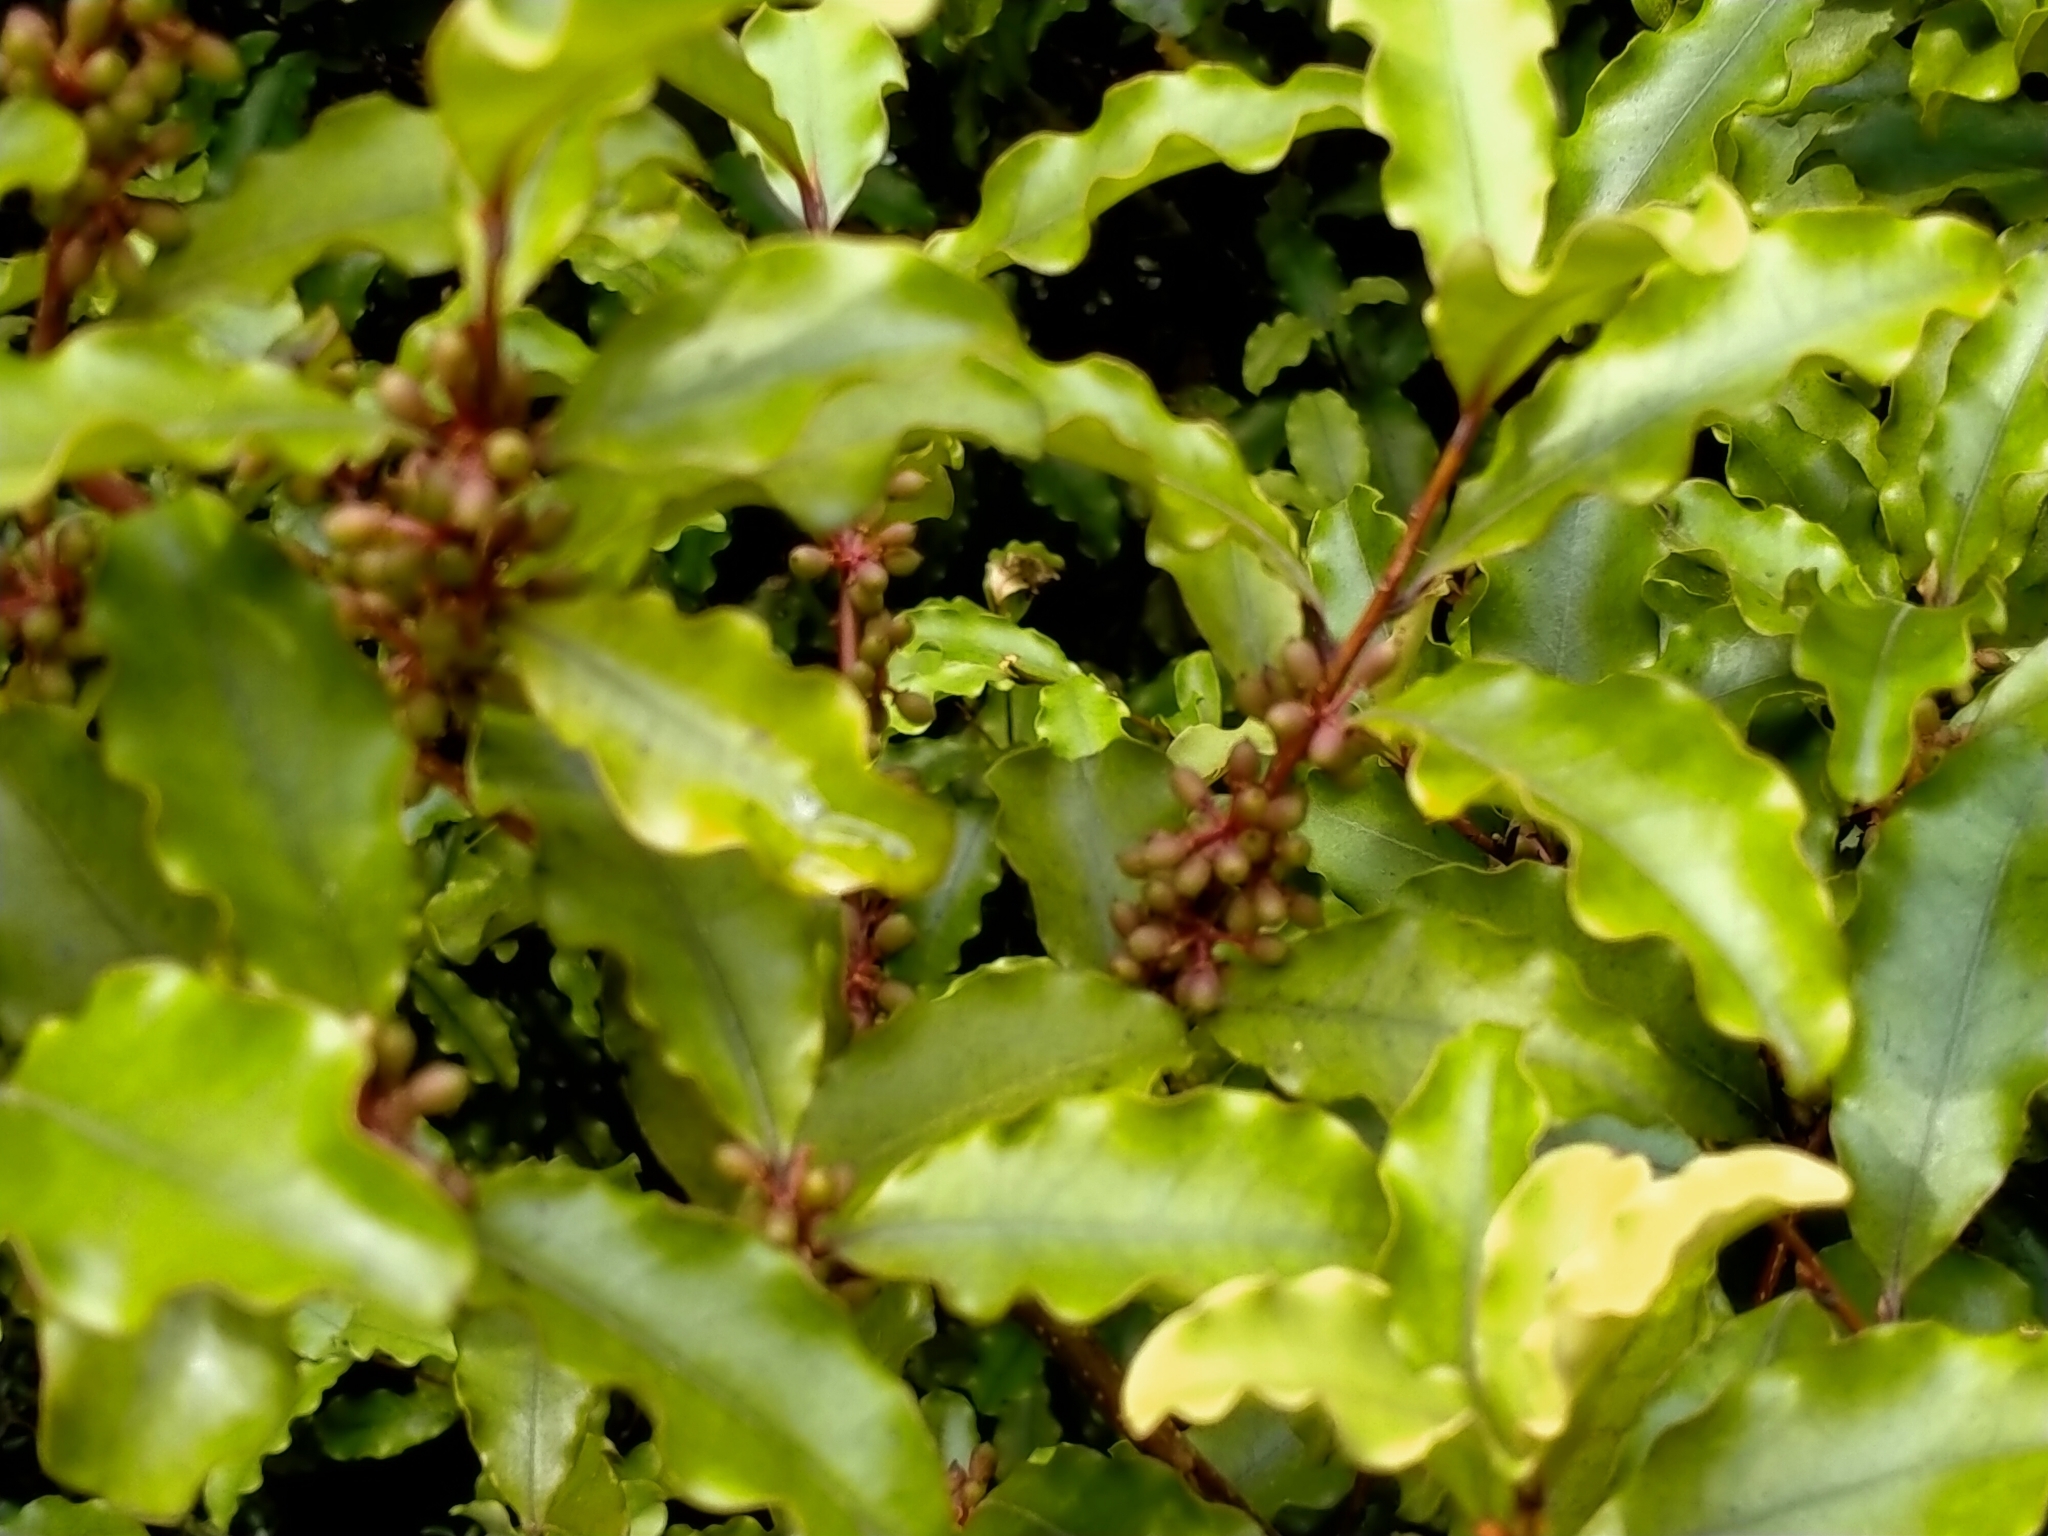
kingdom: Plantae
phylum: Tracheophyta
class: Magnoliopsida
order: Ericales
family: Primulaceae
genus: Myrsine
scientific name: Myrsine australis
